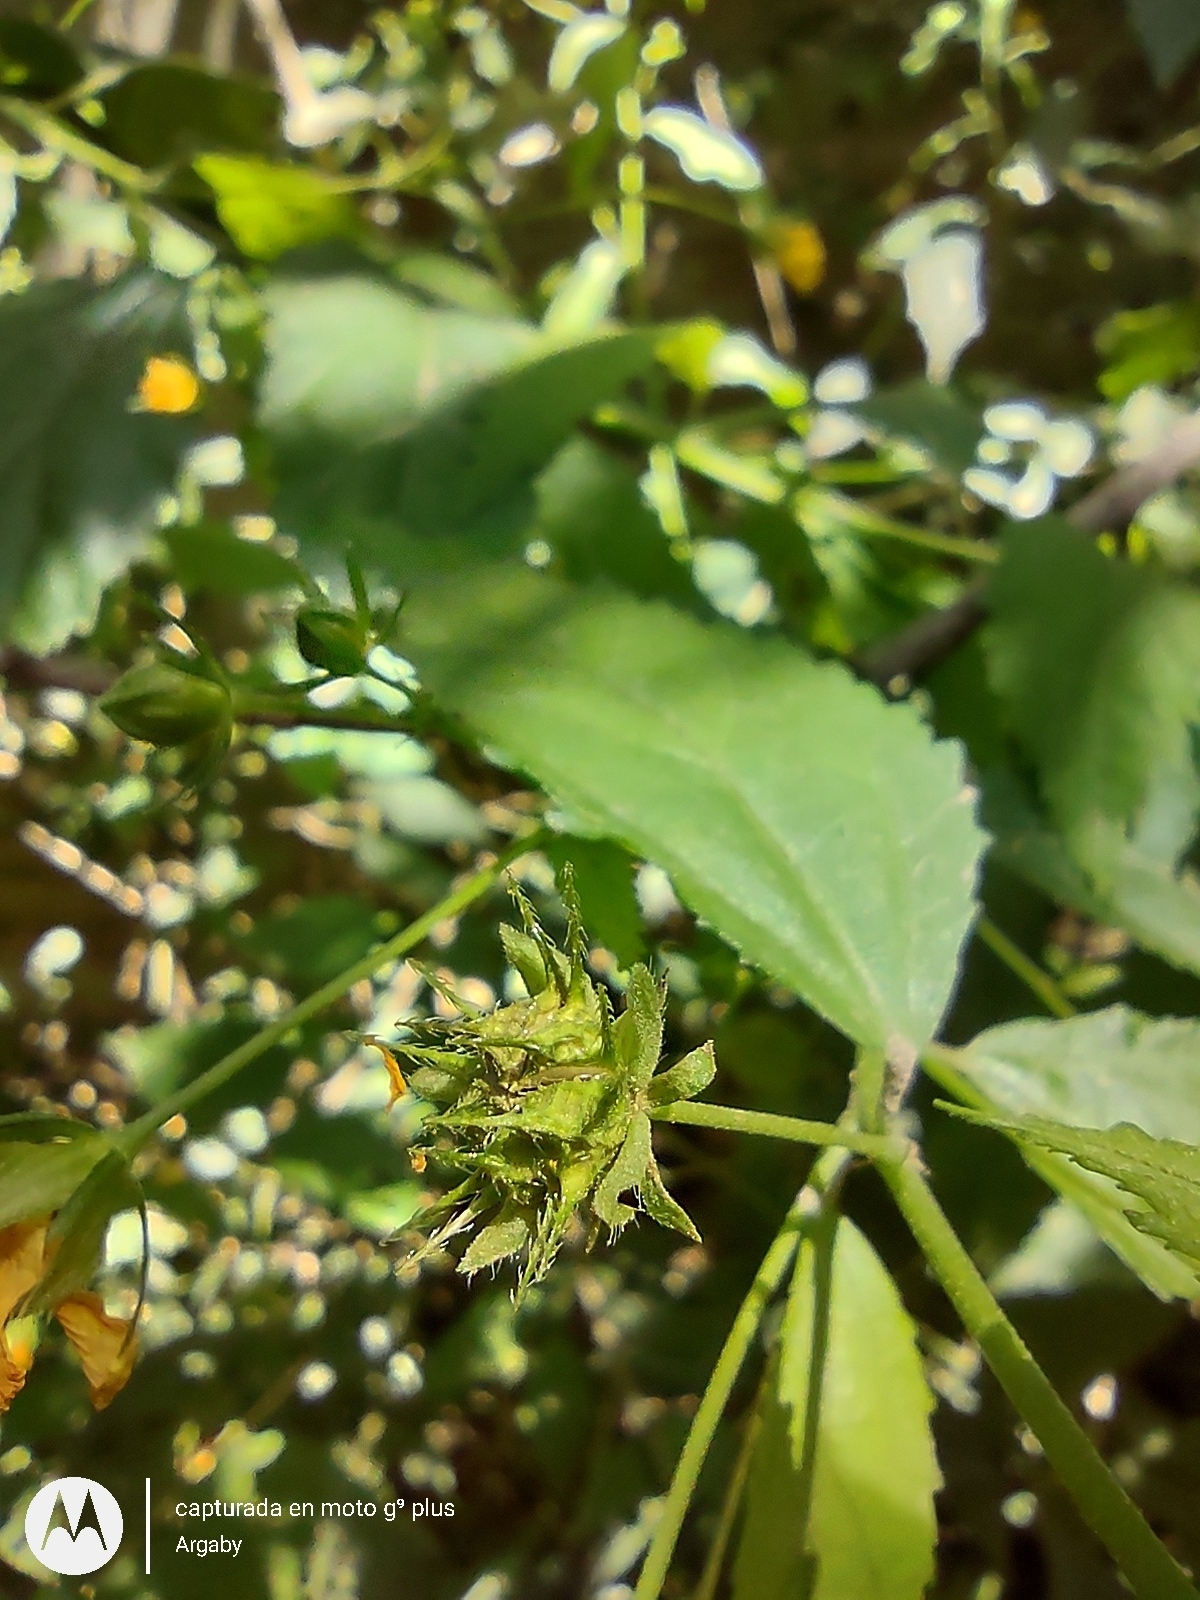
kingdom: Plantae
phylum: Tracheophyta
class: Magnoliopsida
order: Malvales
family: Malvaceae
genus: Pavonia
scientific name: Pavonia sepium
